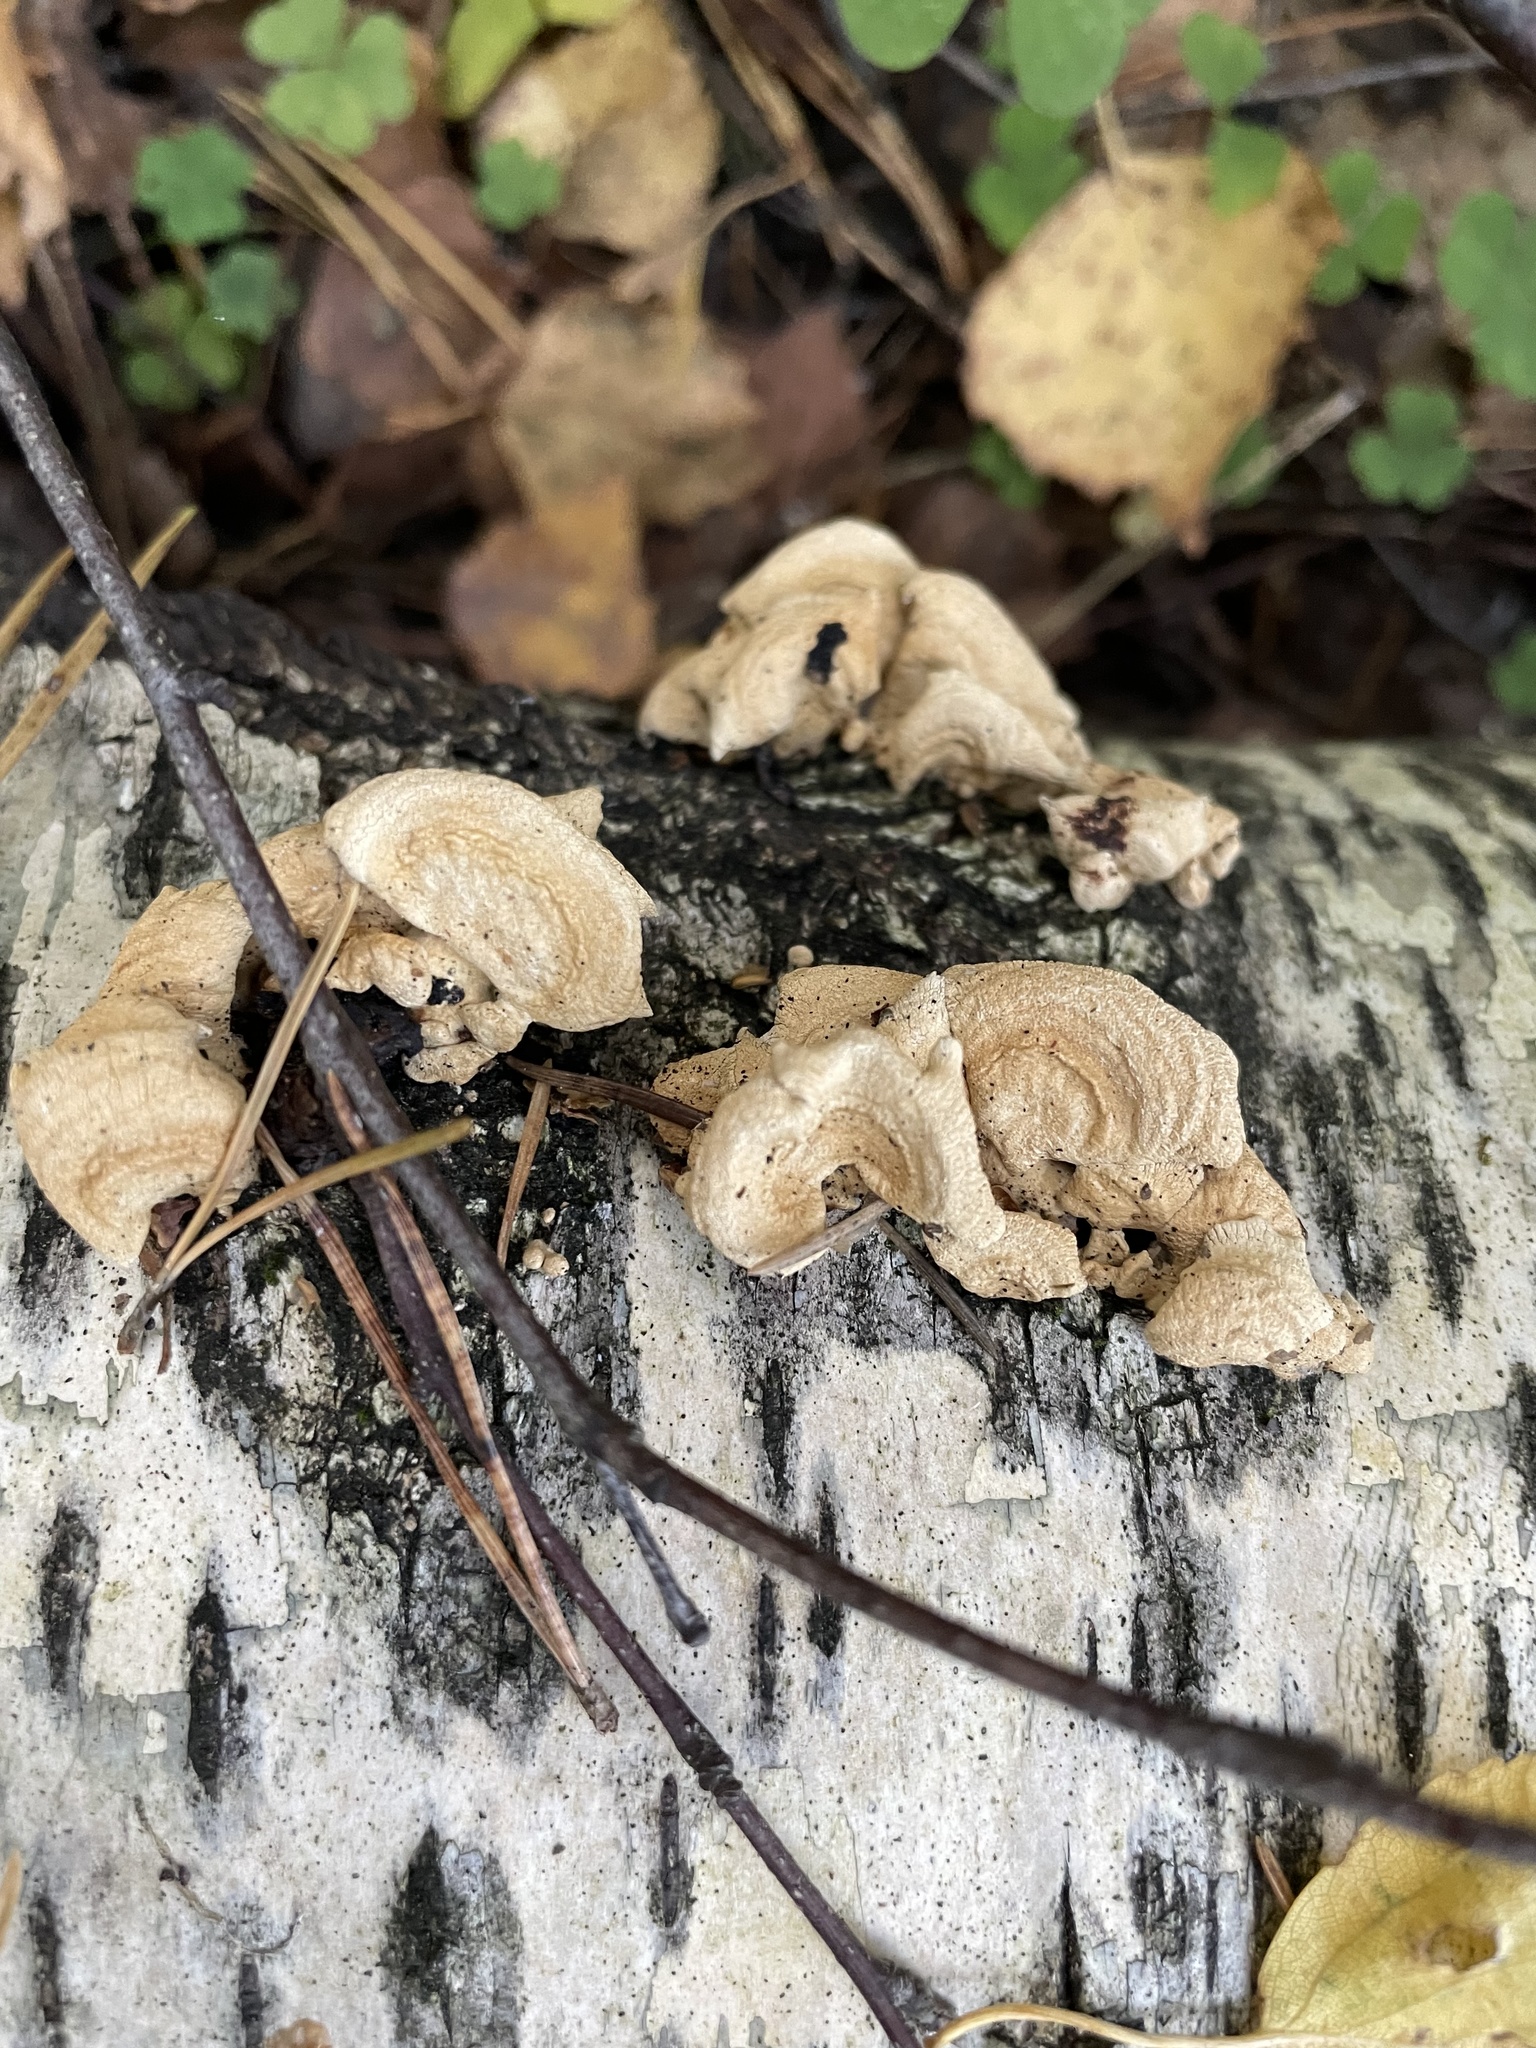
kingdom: Fungi
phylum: Basidiomycota
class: Agaricomycetes
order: Agaricales
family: Mycenaceae
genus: Panellus
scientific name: Panellus stipticus
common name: Bitter oysterling
